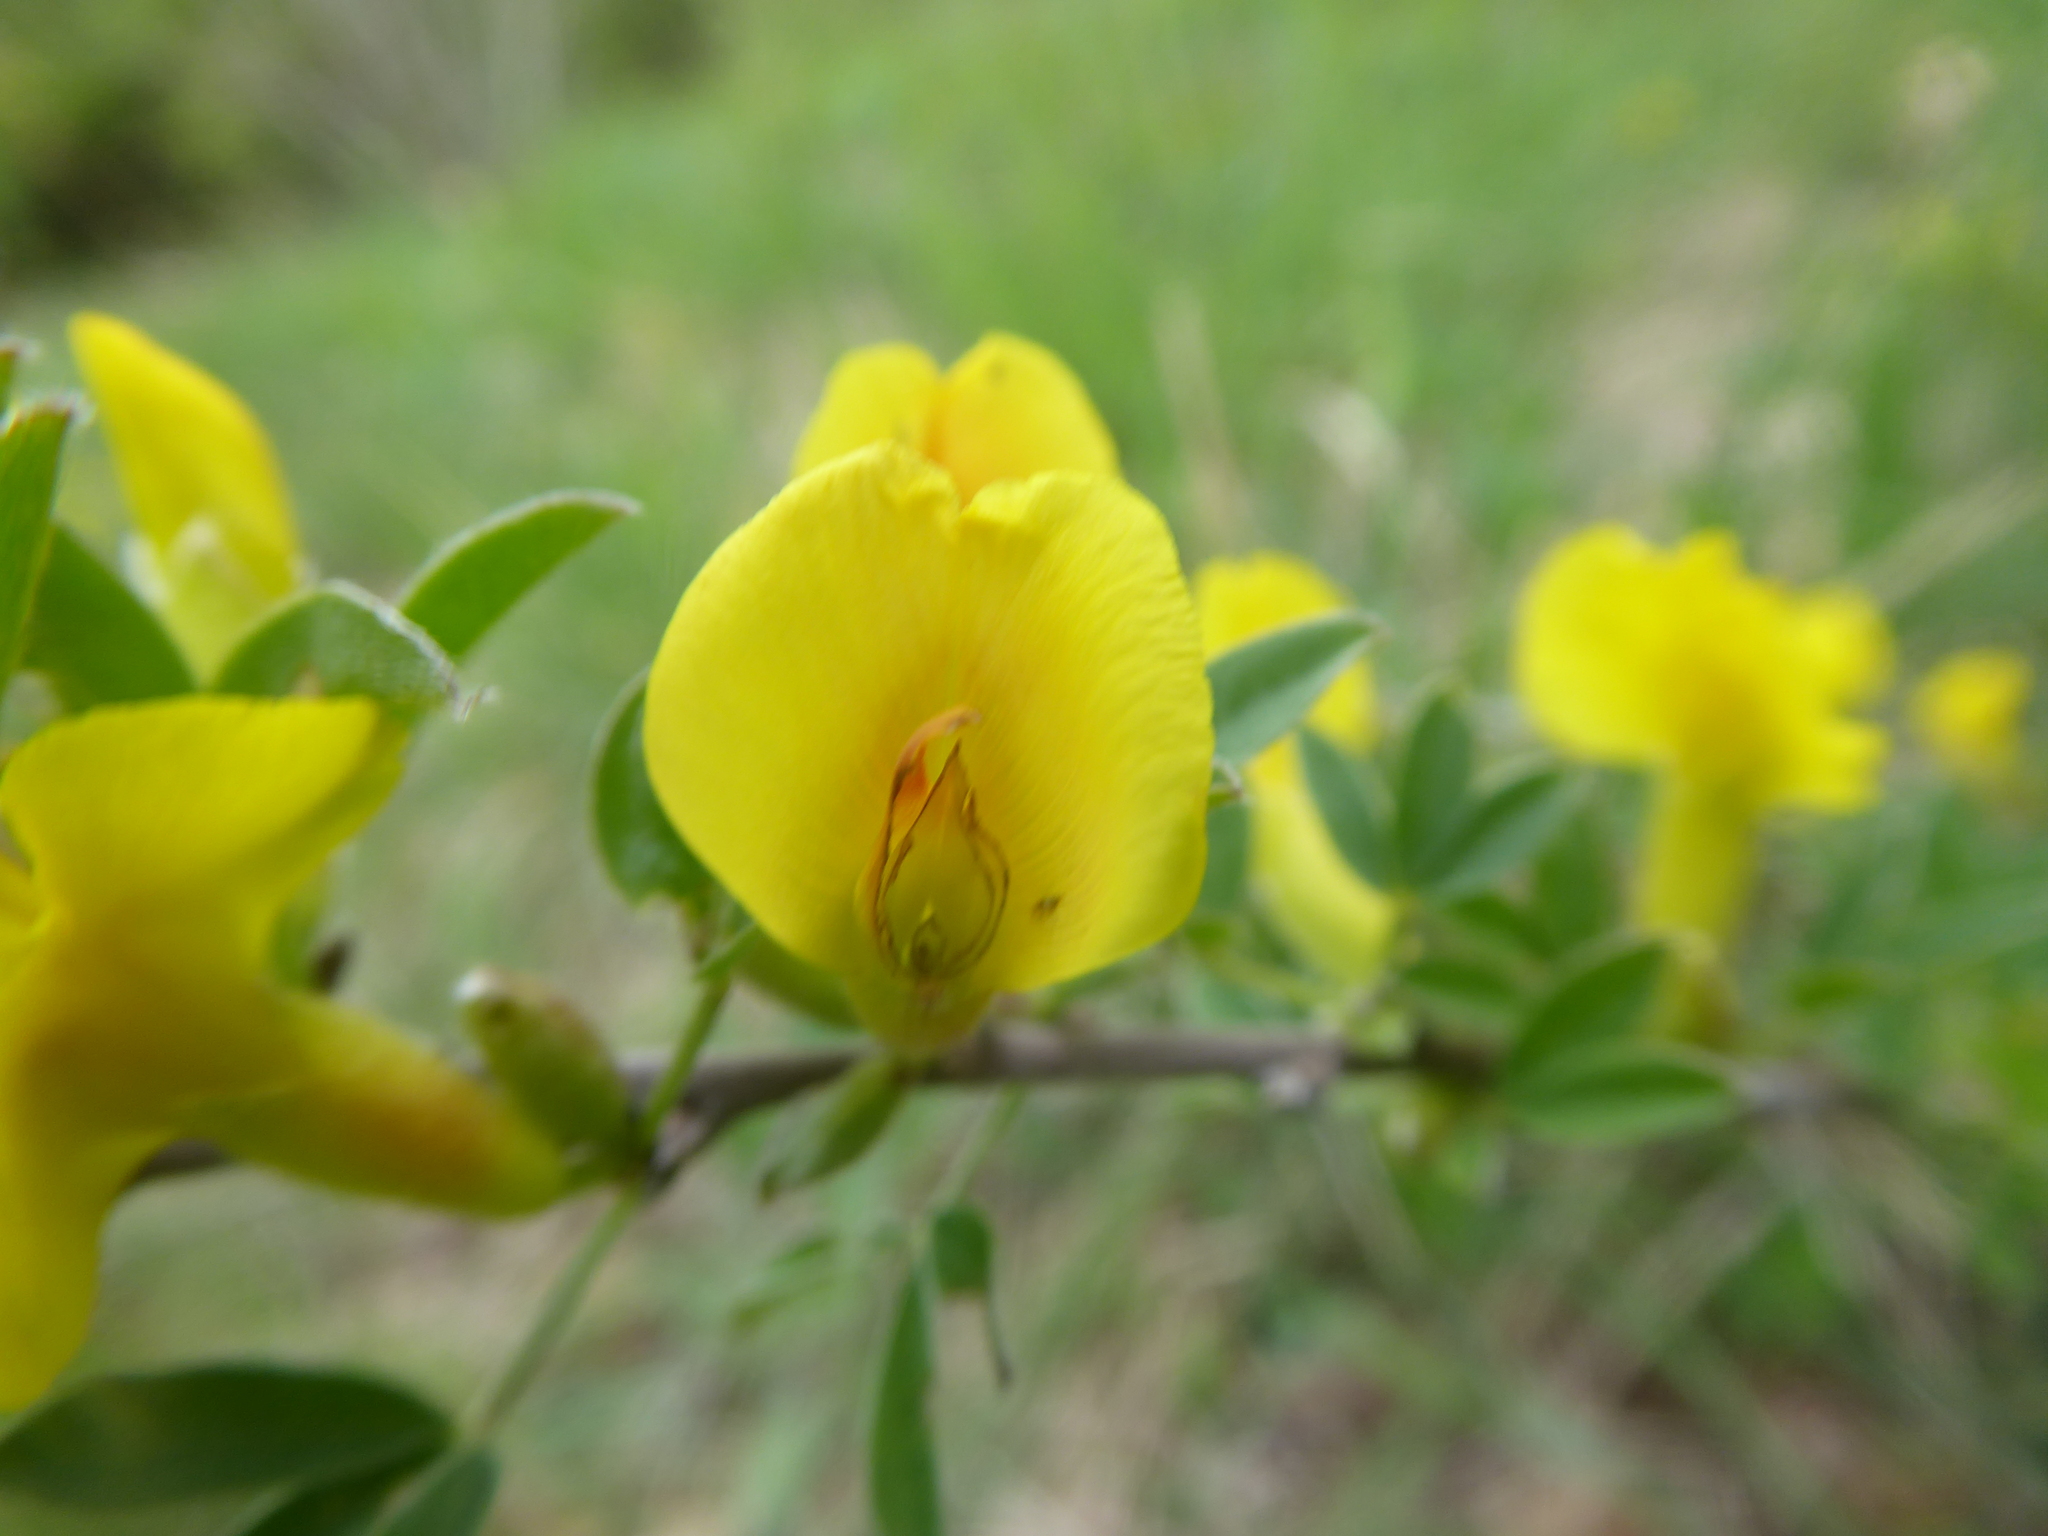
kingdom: Plantae
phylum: Tracheophyta
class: Magnoliopsida
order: Fabales
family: Fabaceae
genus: Chamaecytisus
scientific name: Chamaecytisus ratisbonensis
